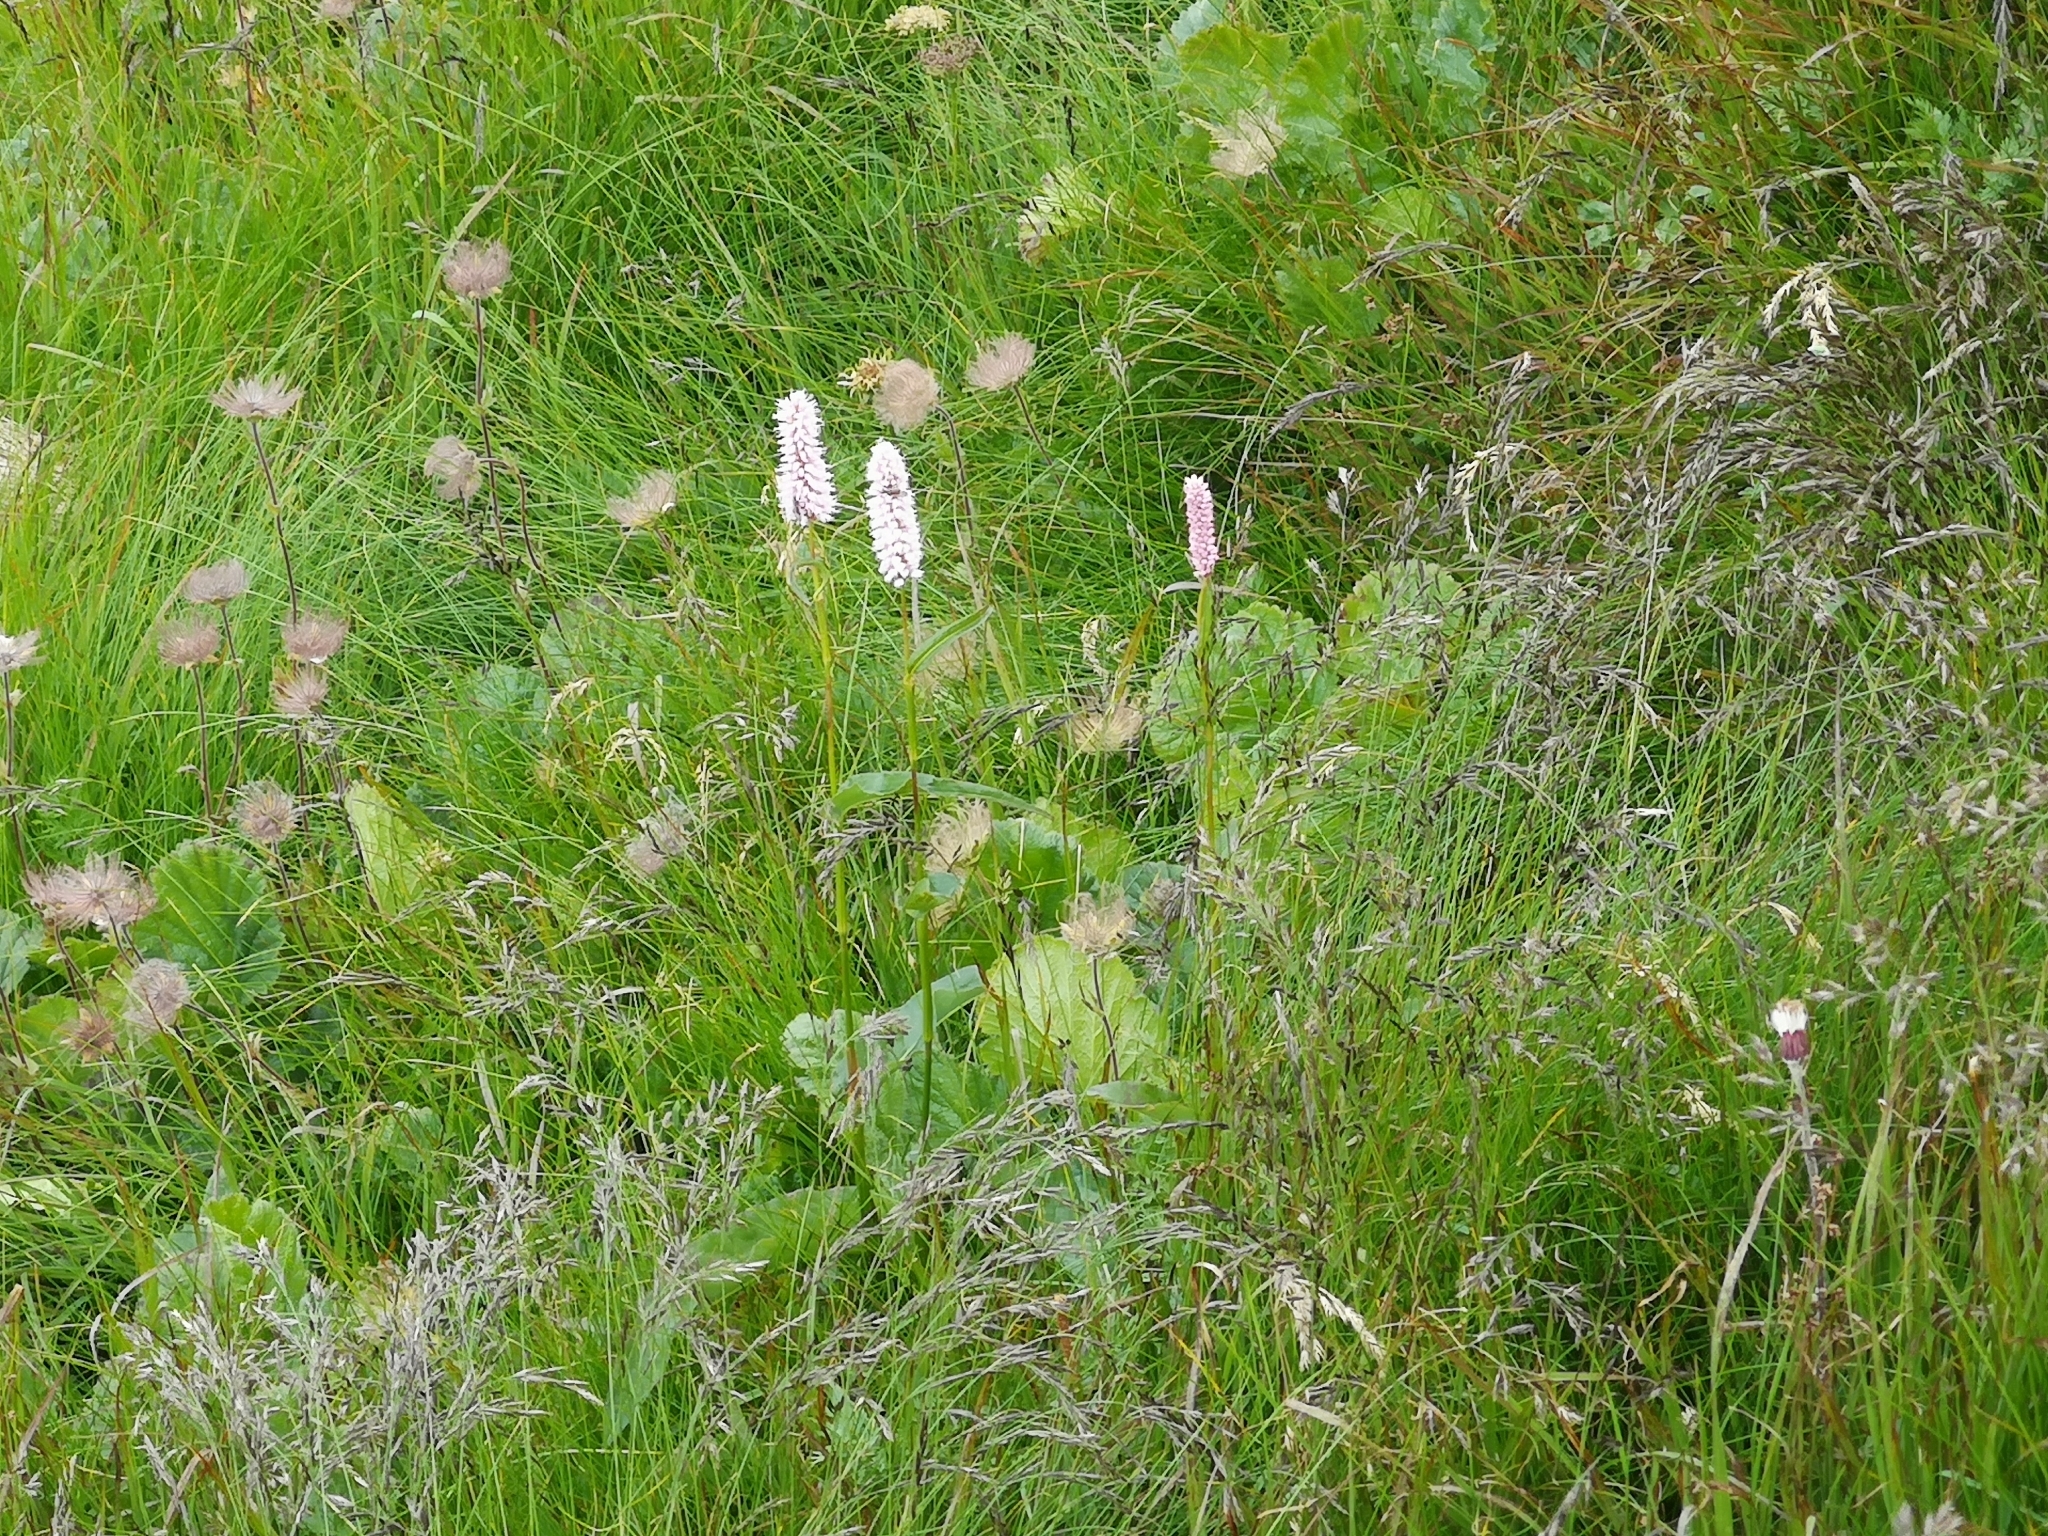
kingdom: Plantae
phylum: Tracheophyta
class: Magnoliopsida
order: Caryophyllales
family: Polygonaceae
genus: Bistorta
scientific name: Bistorta officinalis
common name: Common bistort
